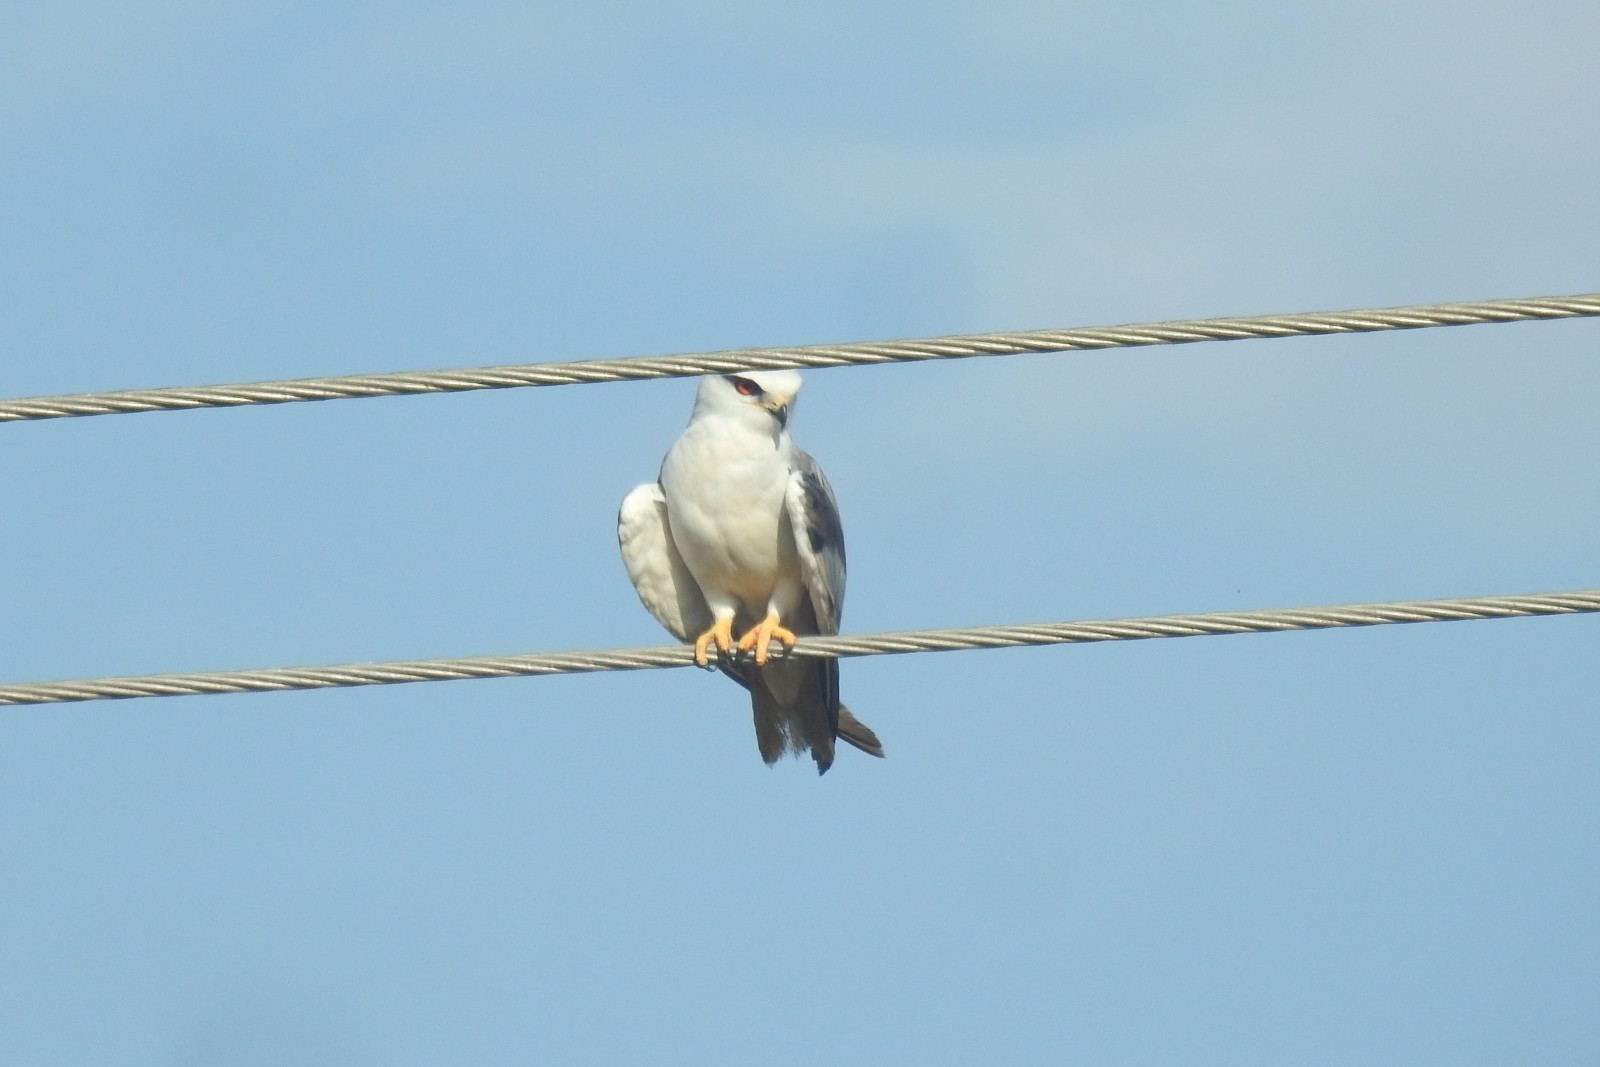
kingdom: Animalia
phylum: Chordata
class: Aves
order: Accipitriformes
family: Accipitridae
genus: Elanus
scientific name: Elanus caeruleus
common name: Black-winged kite
